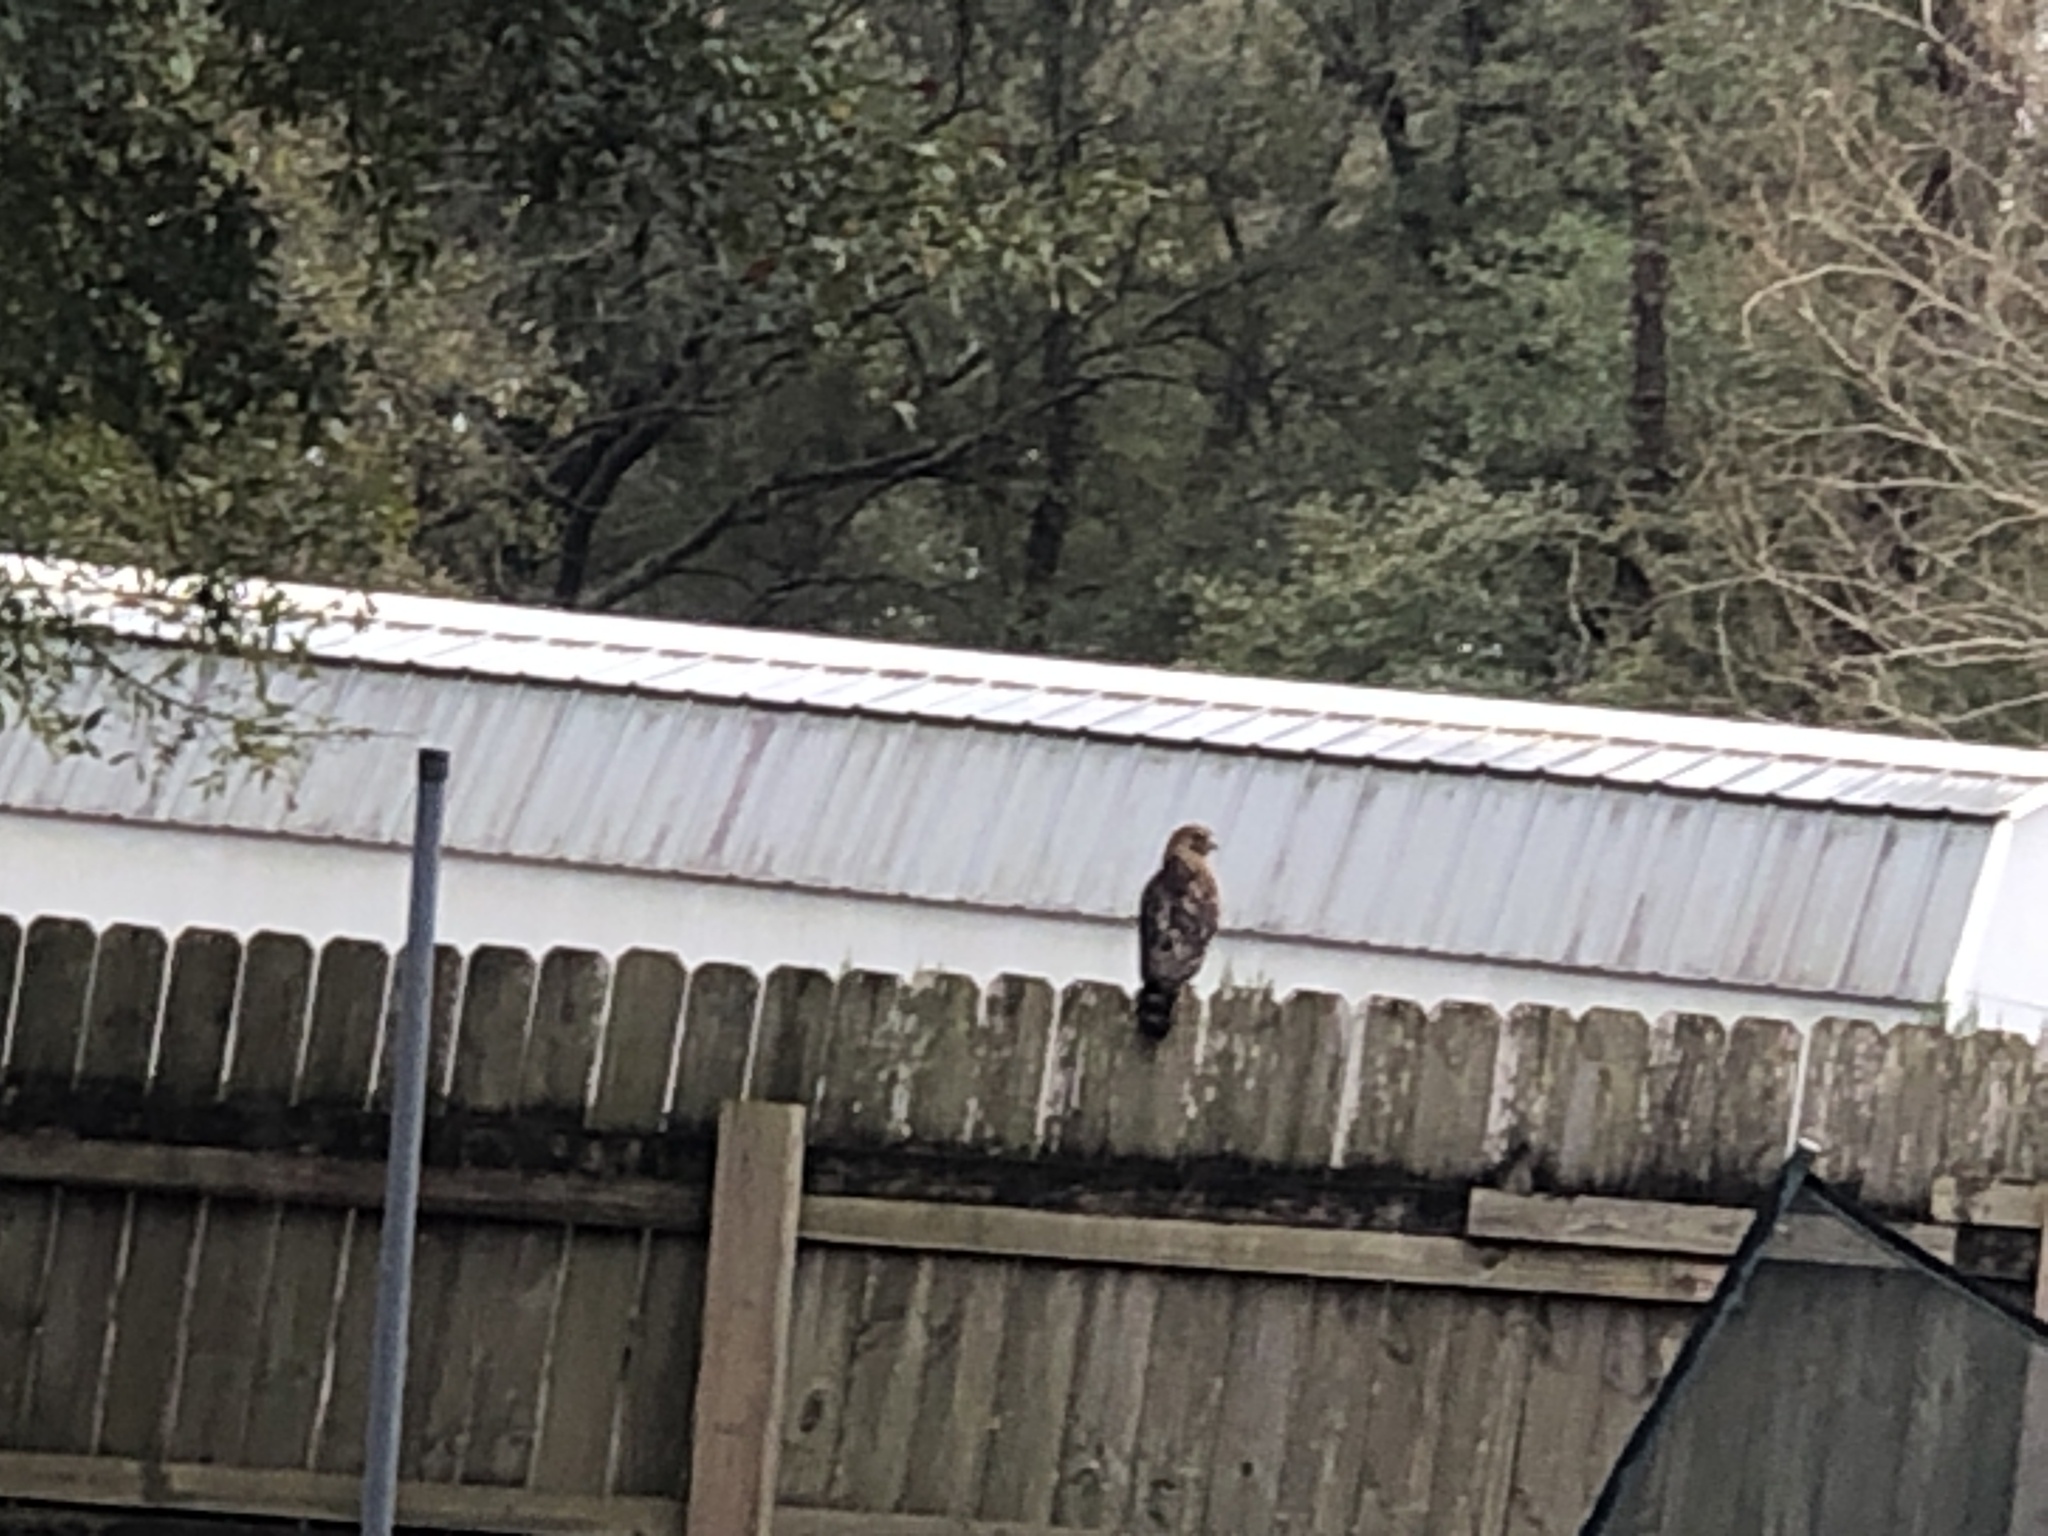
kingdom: Animalia
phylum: Chordata
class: Aves
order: Accipitriformes
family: Accipitridae
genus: Buteo
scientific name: Buteo lineatus
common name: Red-shouldered hawk
